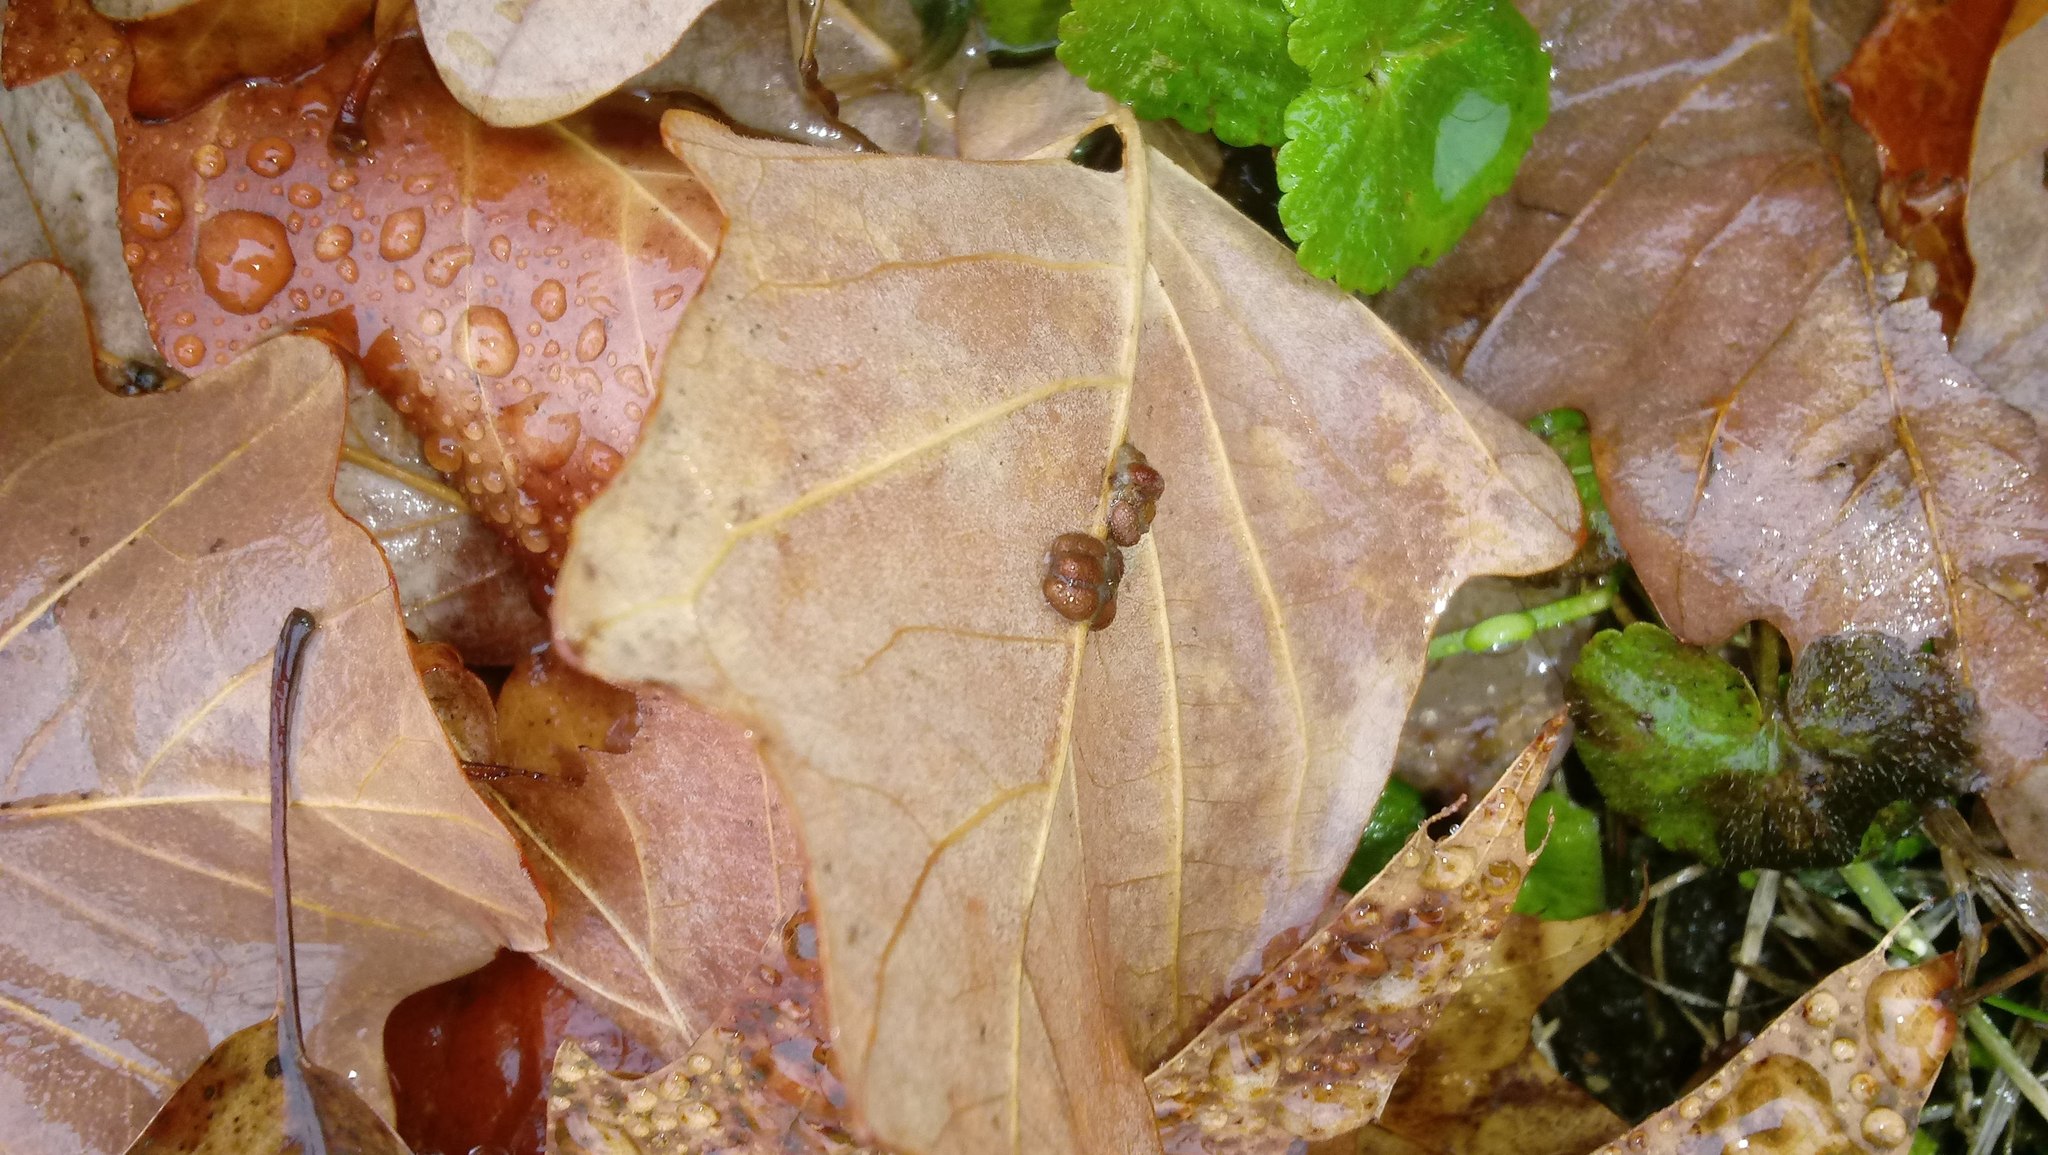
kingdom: Animalia
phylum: Arthropoda
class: Insecta
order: Hymenoptera
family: Cynipidae
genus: Andricus
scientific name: Andricus Druon ignotum
